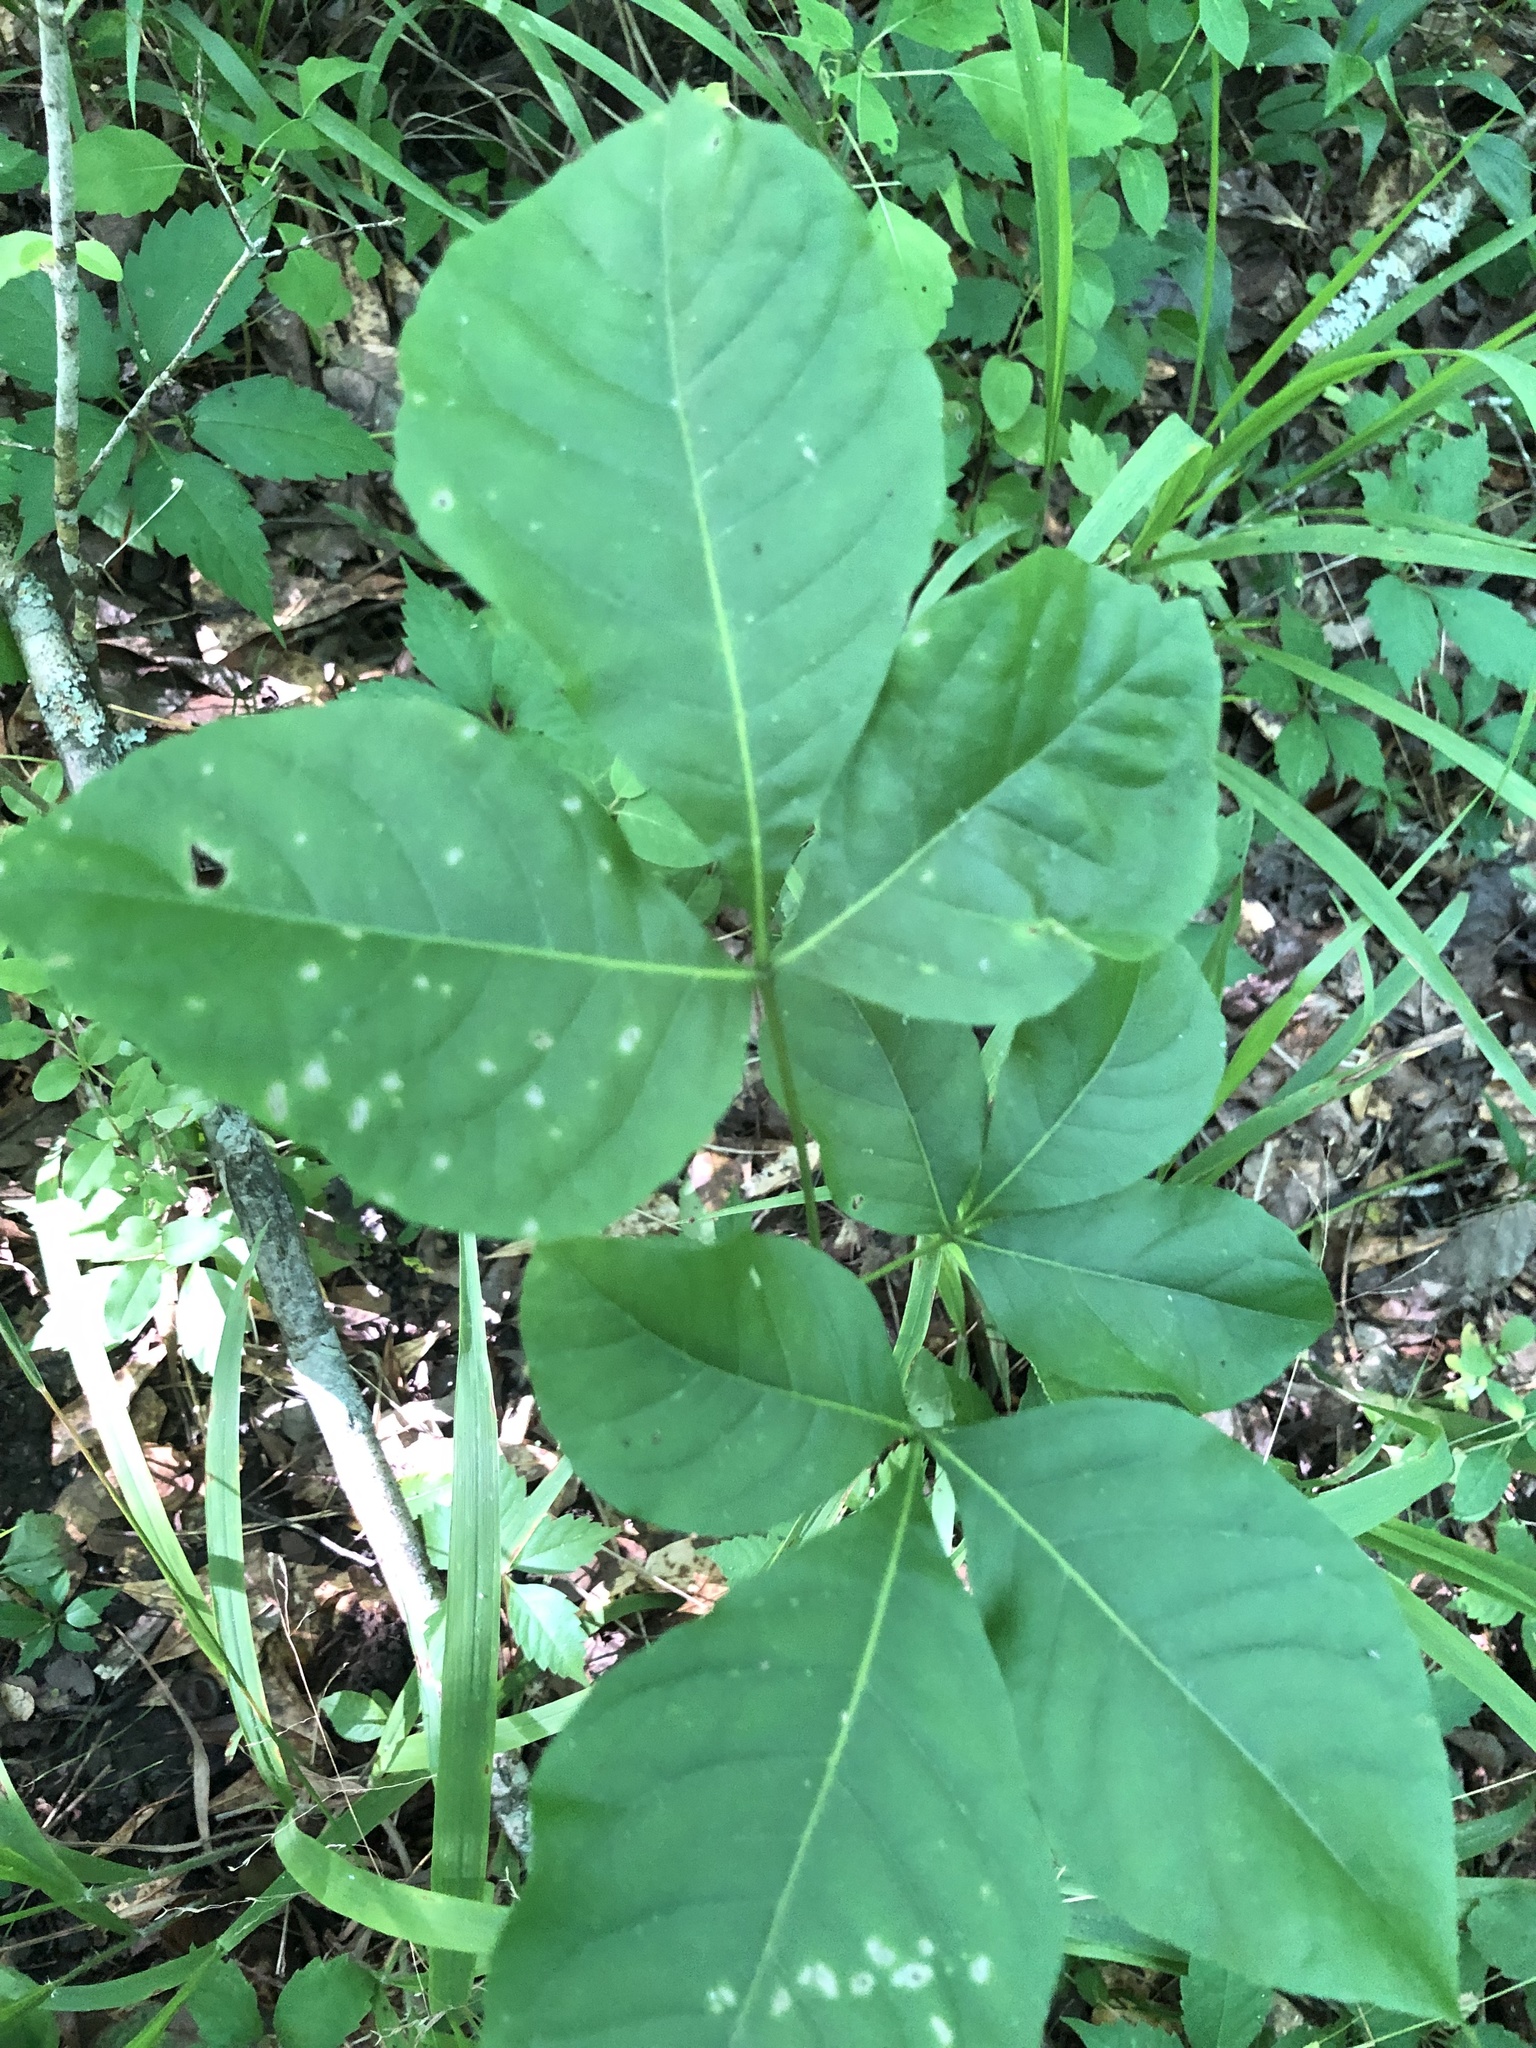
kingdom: Plantae
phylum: Tracheophyta
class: Magnoliopsida
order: Sapindales
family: Rutaceae
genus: Ptelea
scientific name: Ptelea trifoliata
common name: Common hop-tree
